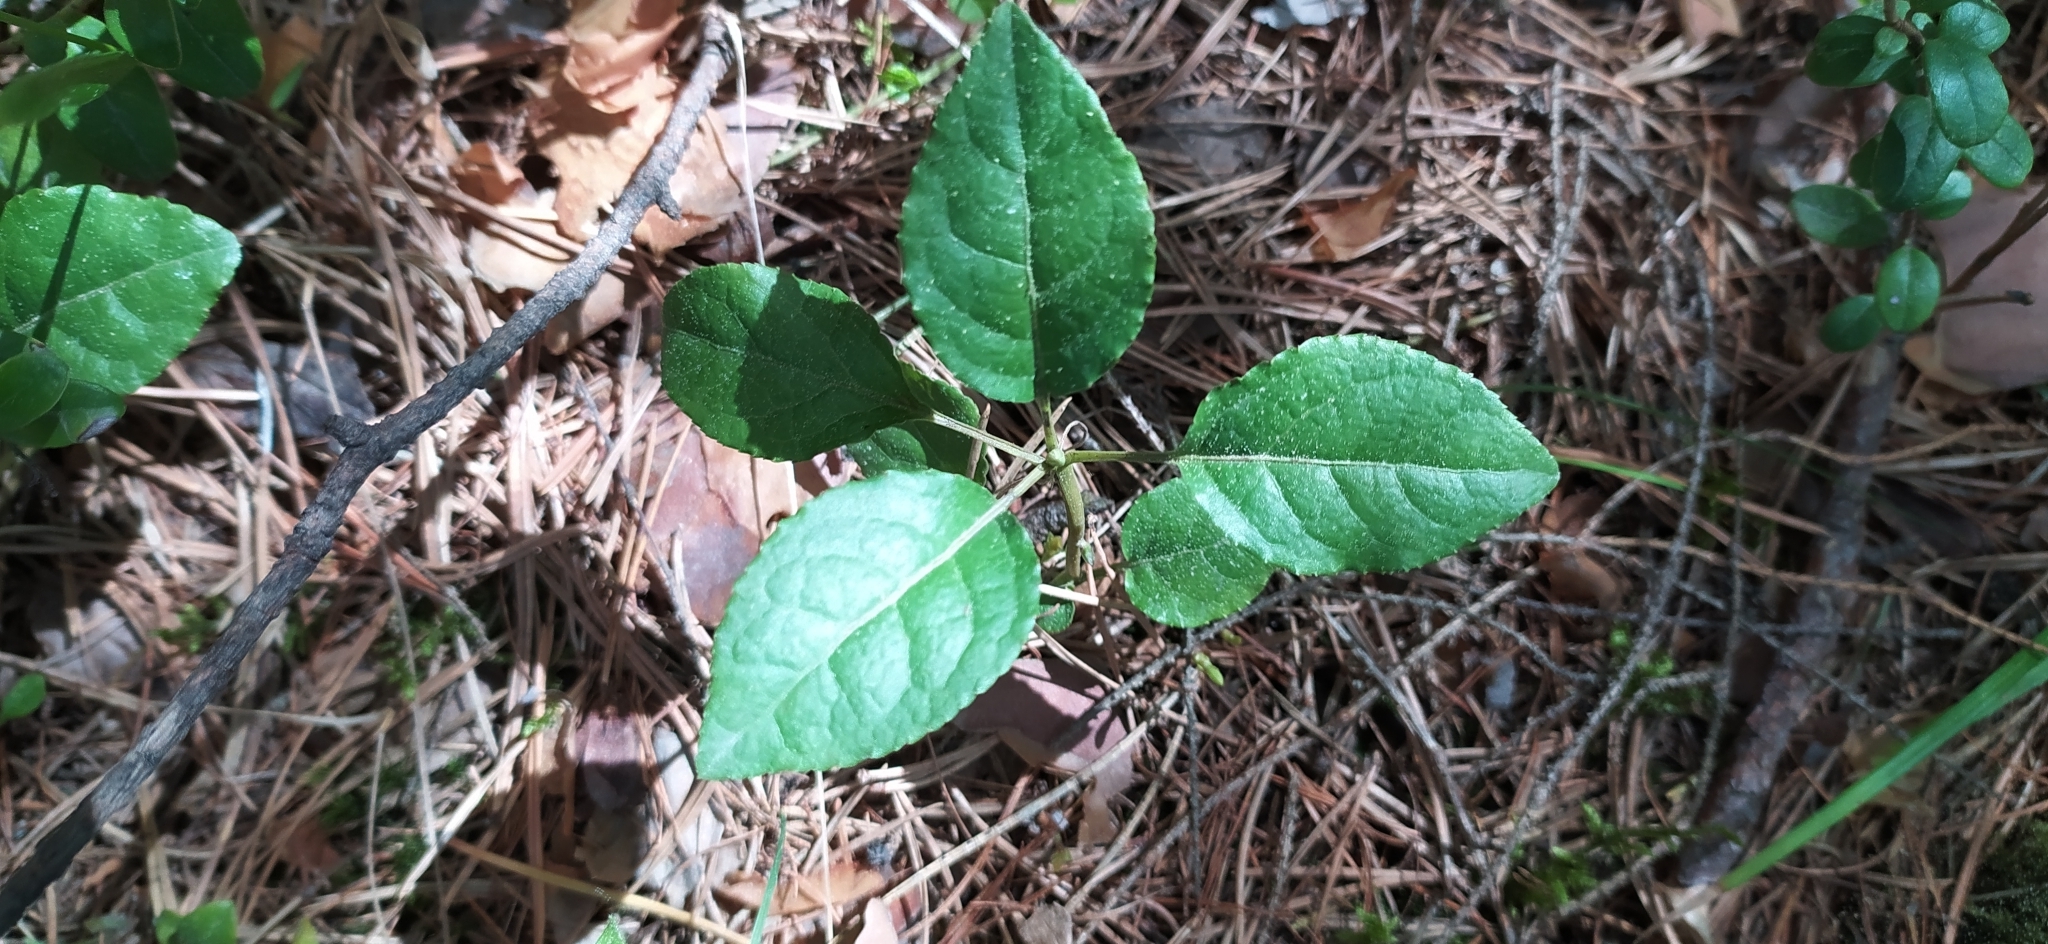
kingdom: Plantae
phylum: Tracheophyta
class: Magnoliopsida
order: Ericales
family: Ericaceae
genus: Orthilia
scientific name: Orthilia secunda
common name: One-sided orthilia
